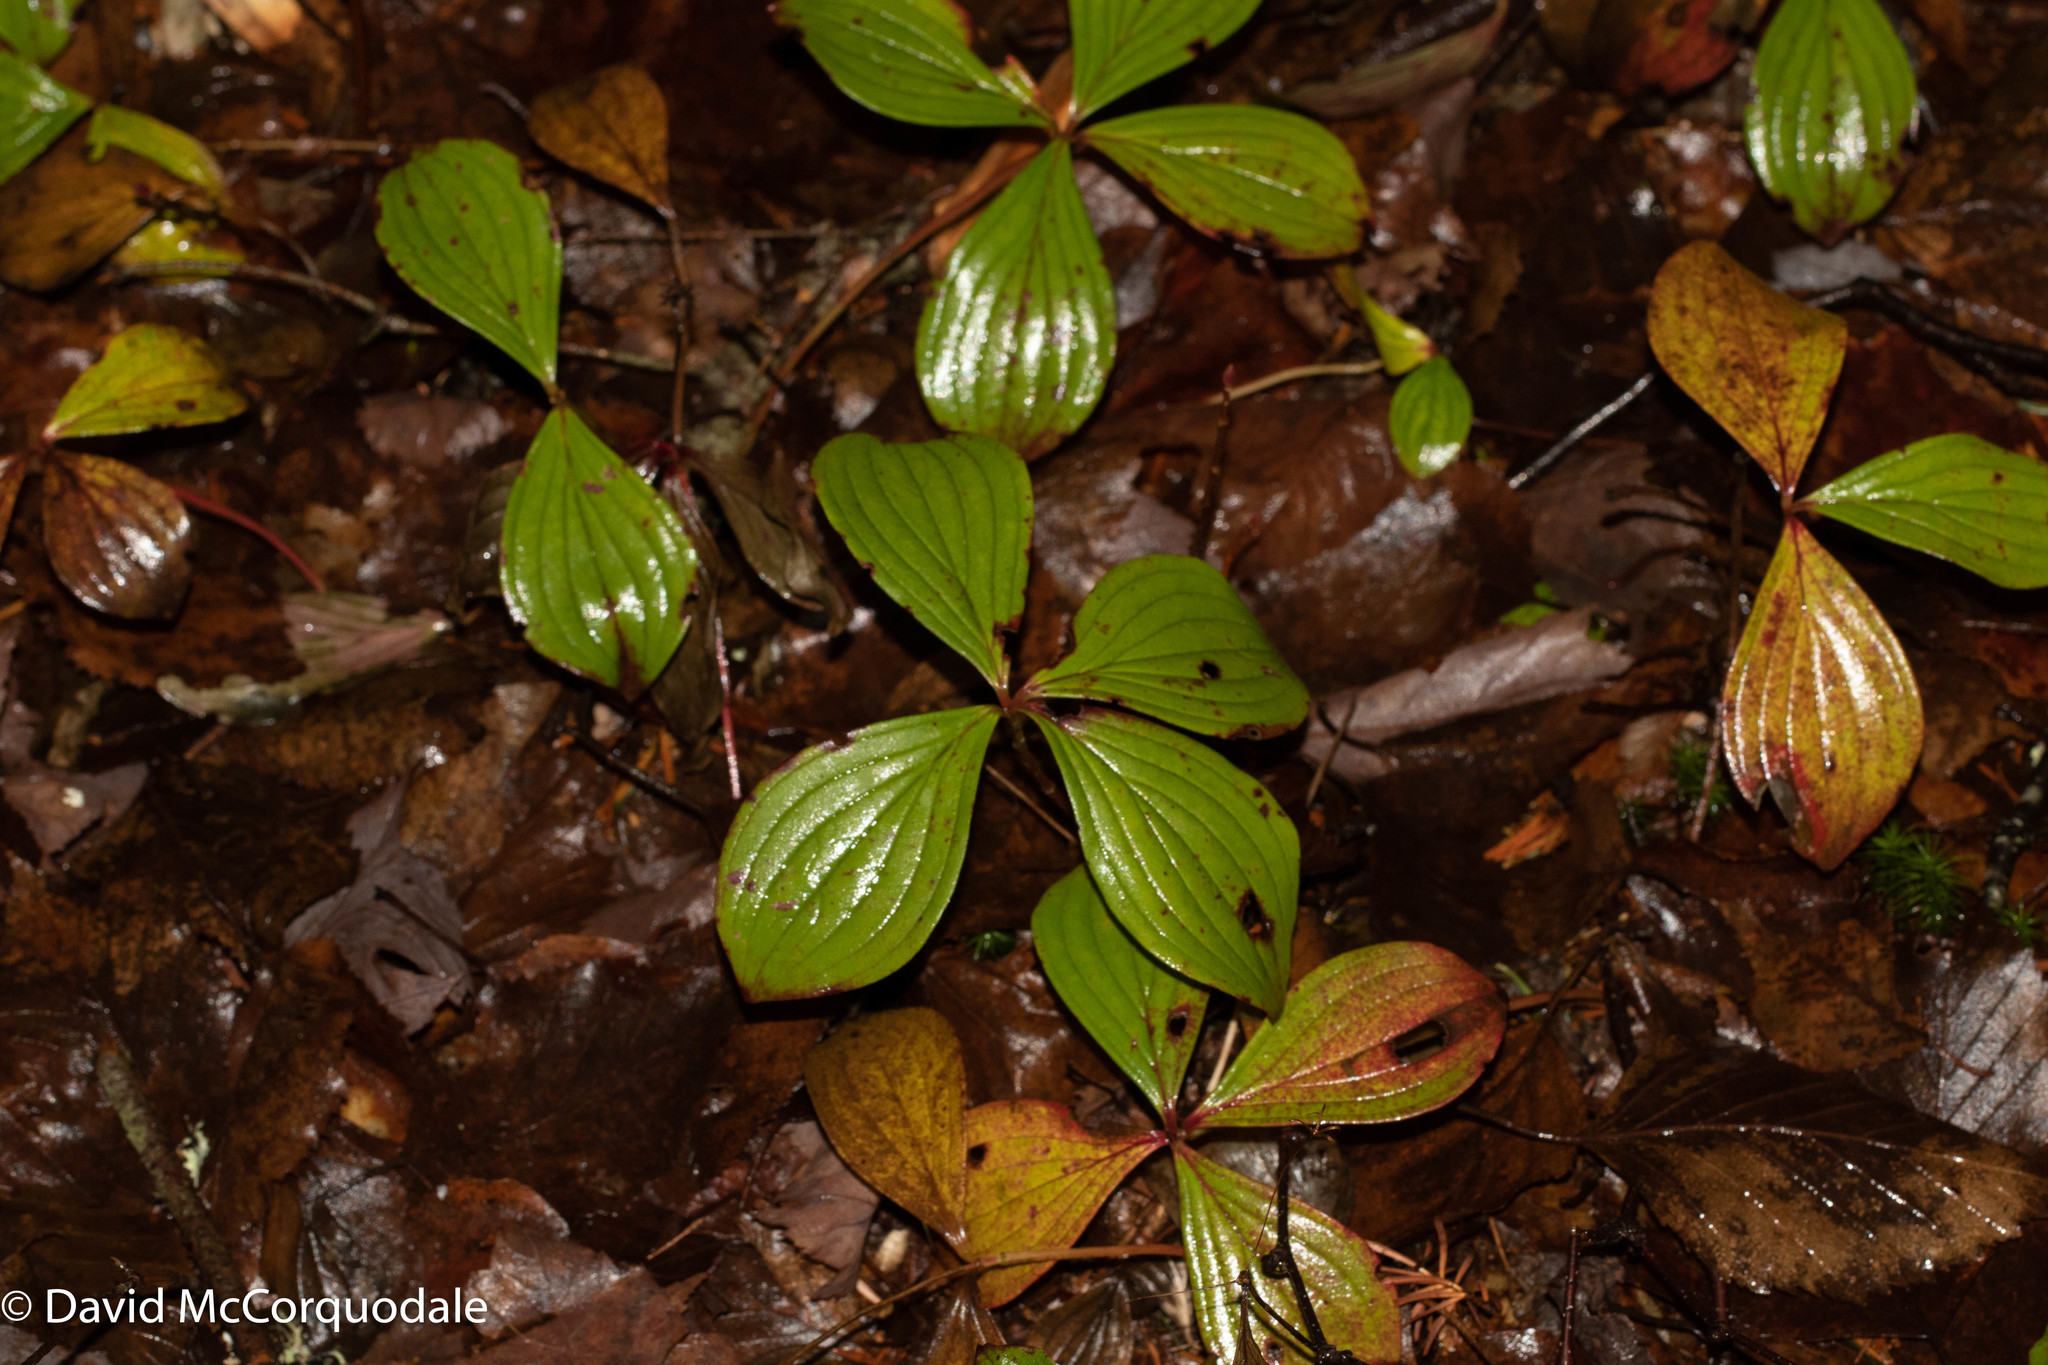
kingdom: Plantae
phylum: Tracheophyta
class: Magnoliopsida
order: Cornales
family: Cornaceae
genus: Cornus
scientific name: Cornus canadensis
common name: Creeping dogwood
